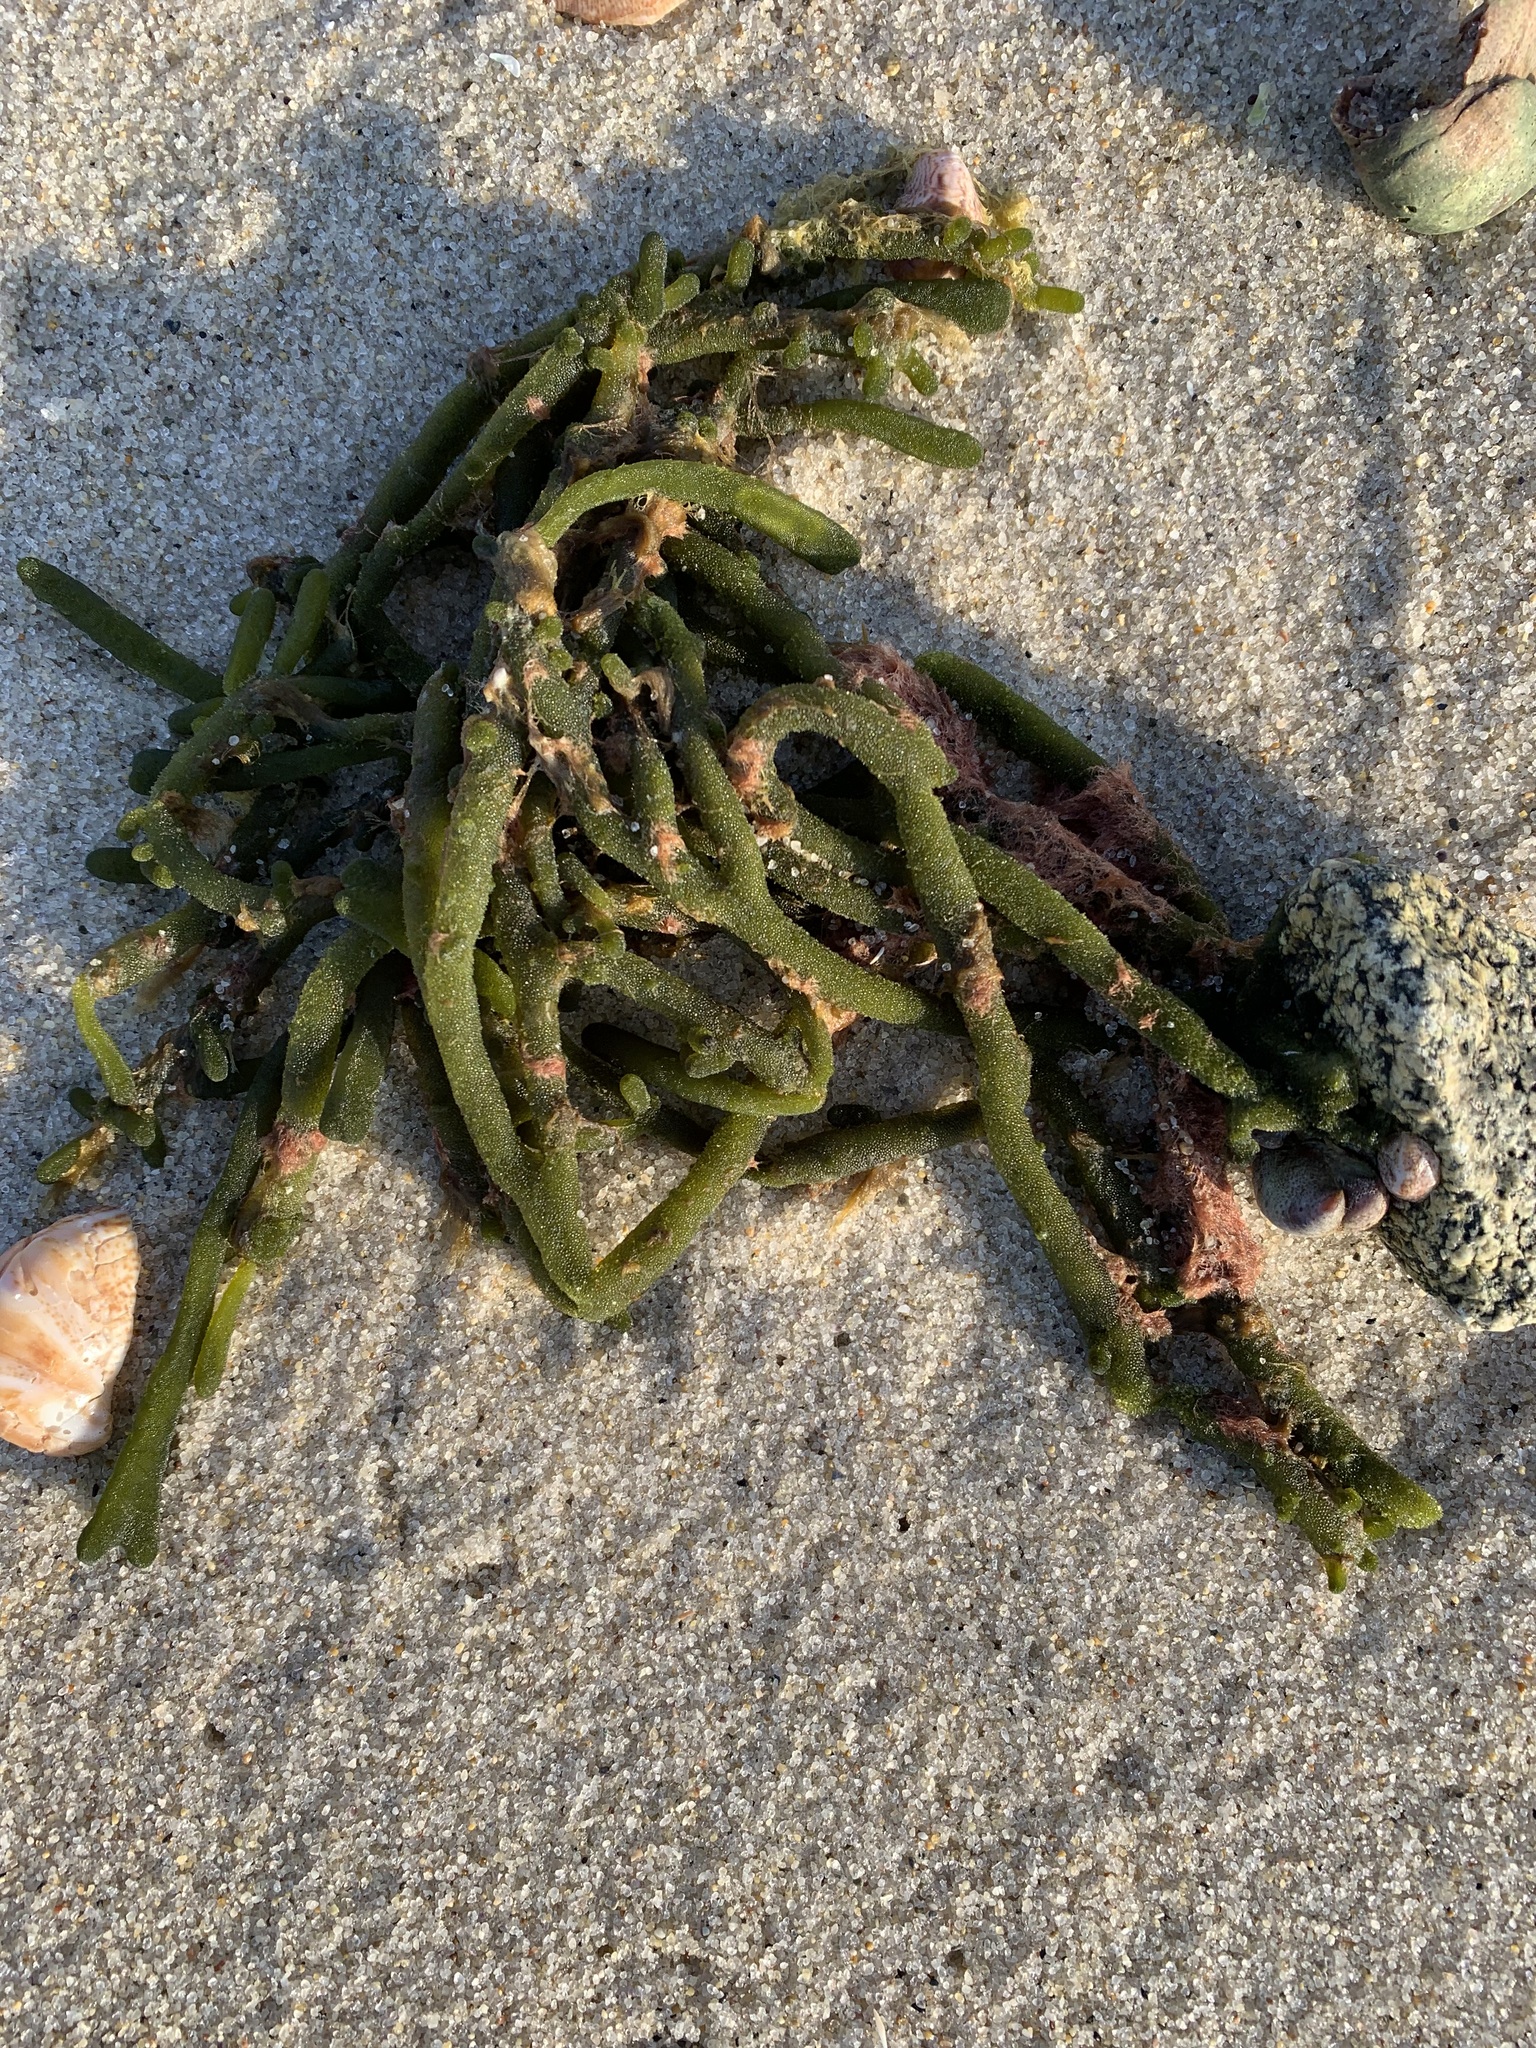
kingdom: Plantae
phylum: Chlorophyta
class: Ulvophyceae
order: Bryopsidales
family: Codiaceae
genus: Codium
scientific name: Codium fragile
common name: Dead man's fingers
